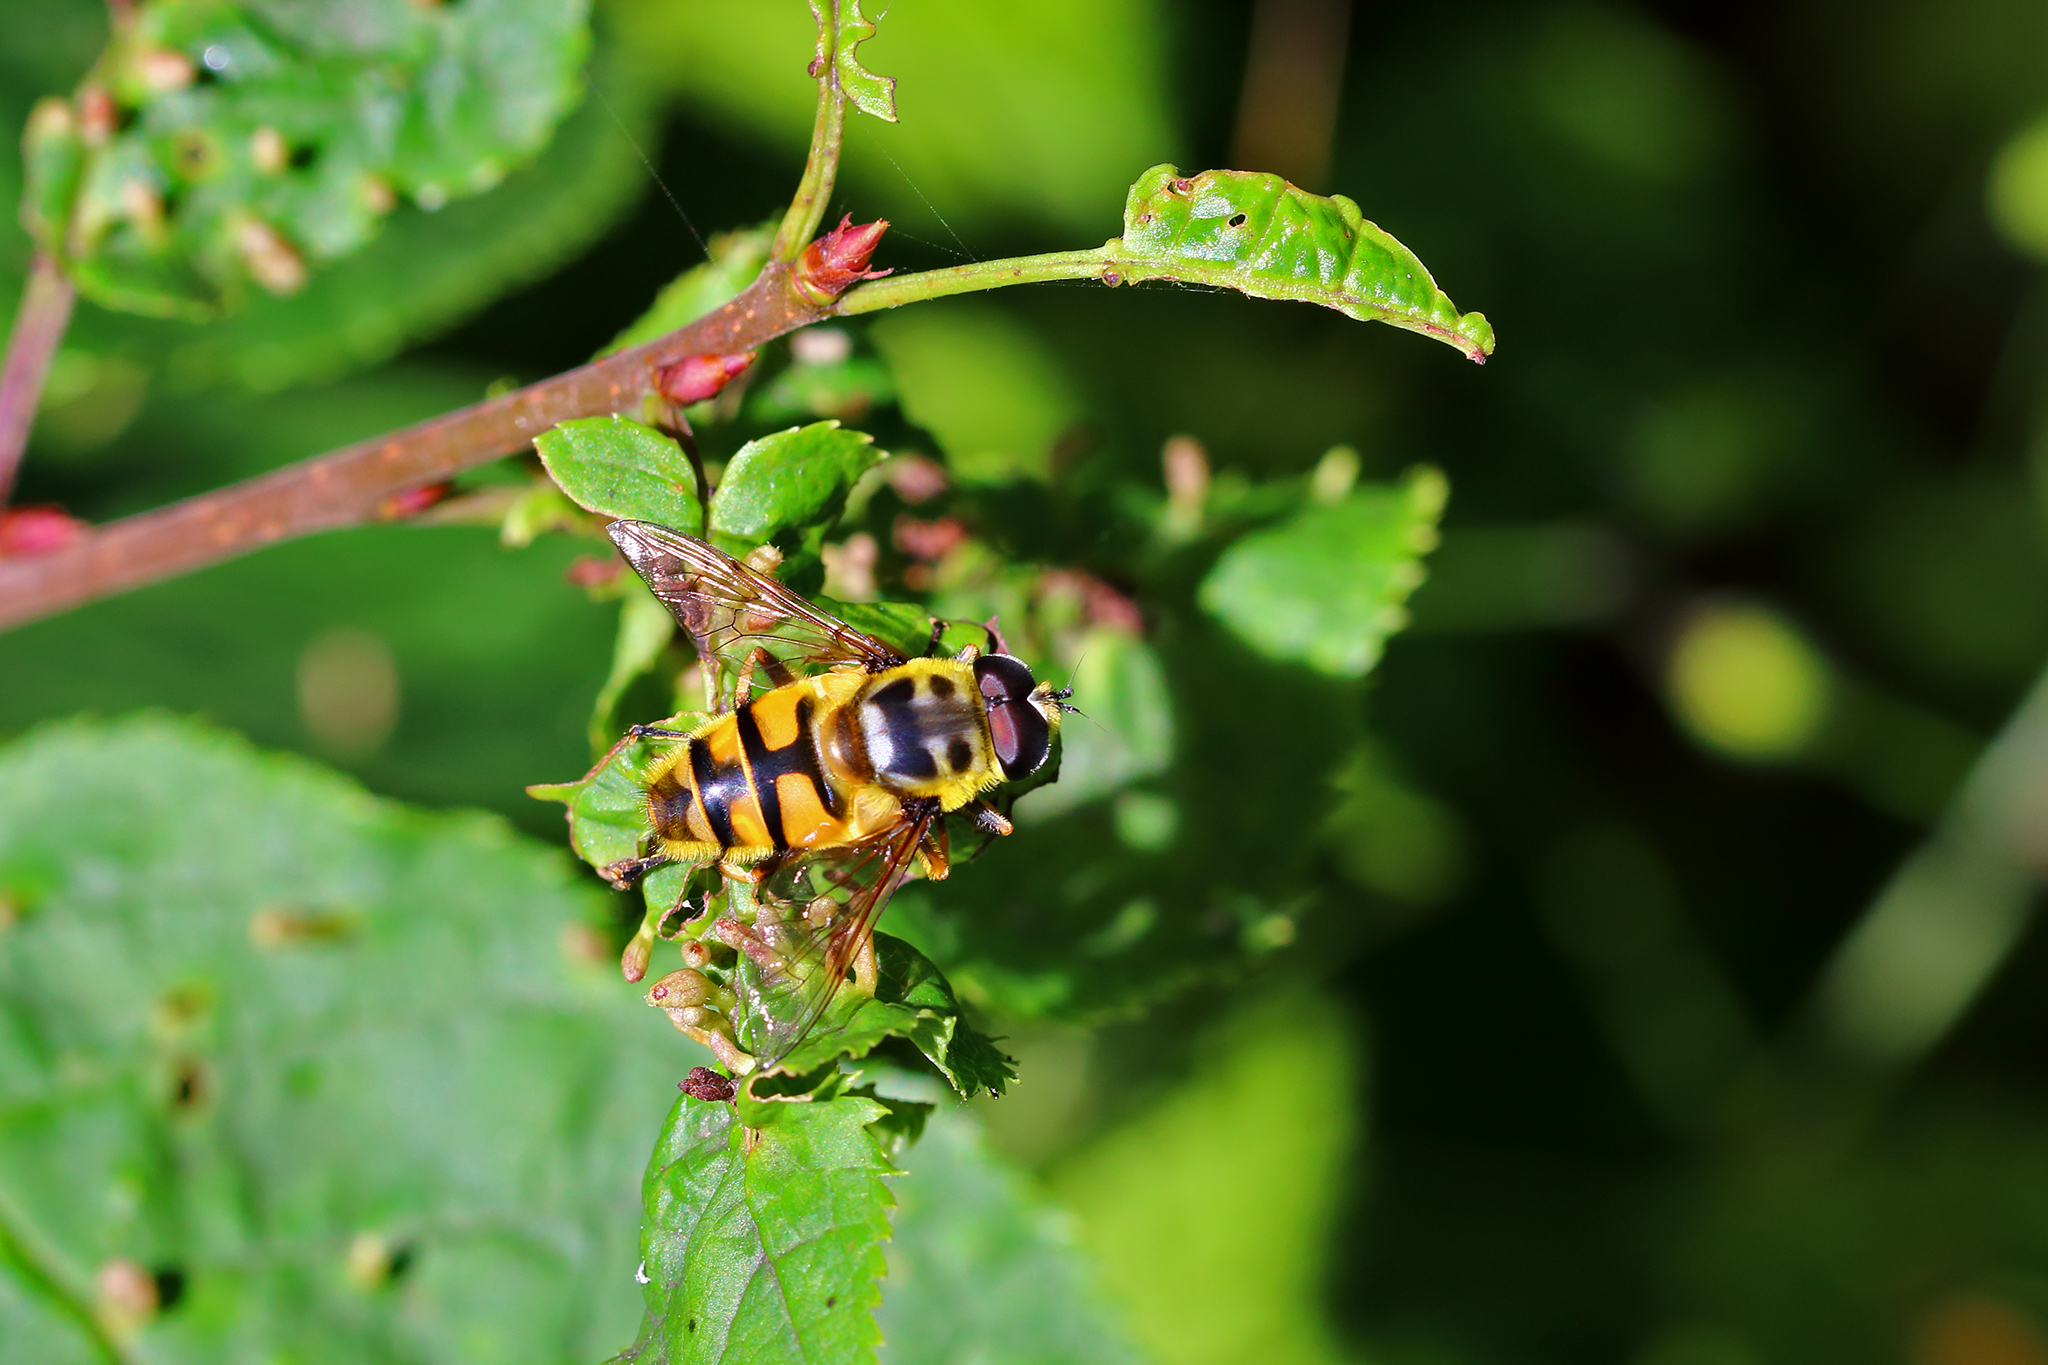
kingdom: Animalia
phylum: Arthropoda
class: Insecta
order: Diptera
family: Syrphidae
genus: Myathropa
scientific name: Myathropa florea
